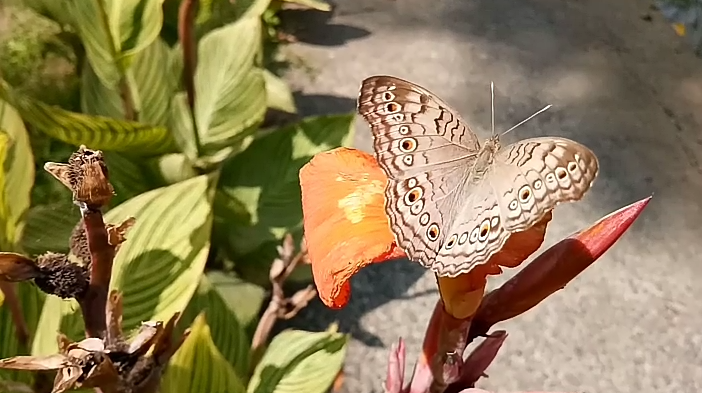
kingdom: Animalia
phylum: Arthropoda
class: Insecta
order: Lepidoptera
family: Nymphalidae
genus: Junonia
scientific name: Junonia atlites
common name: Grey pansy
